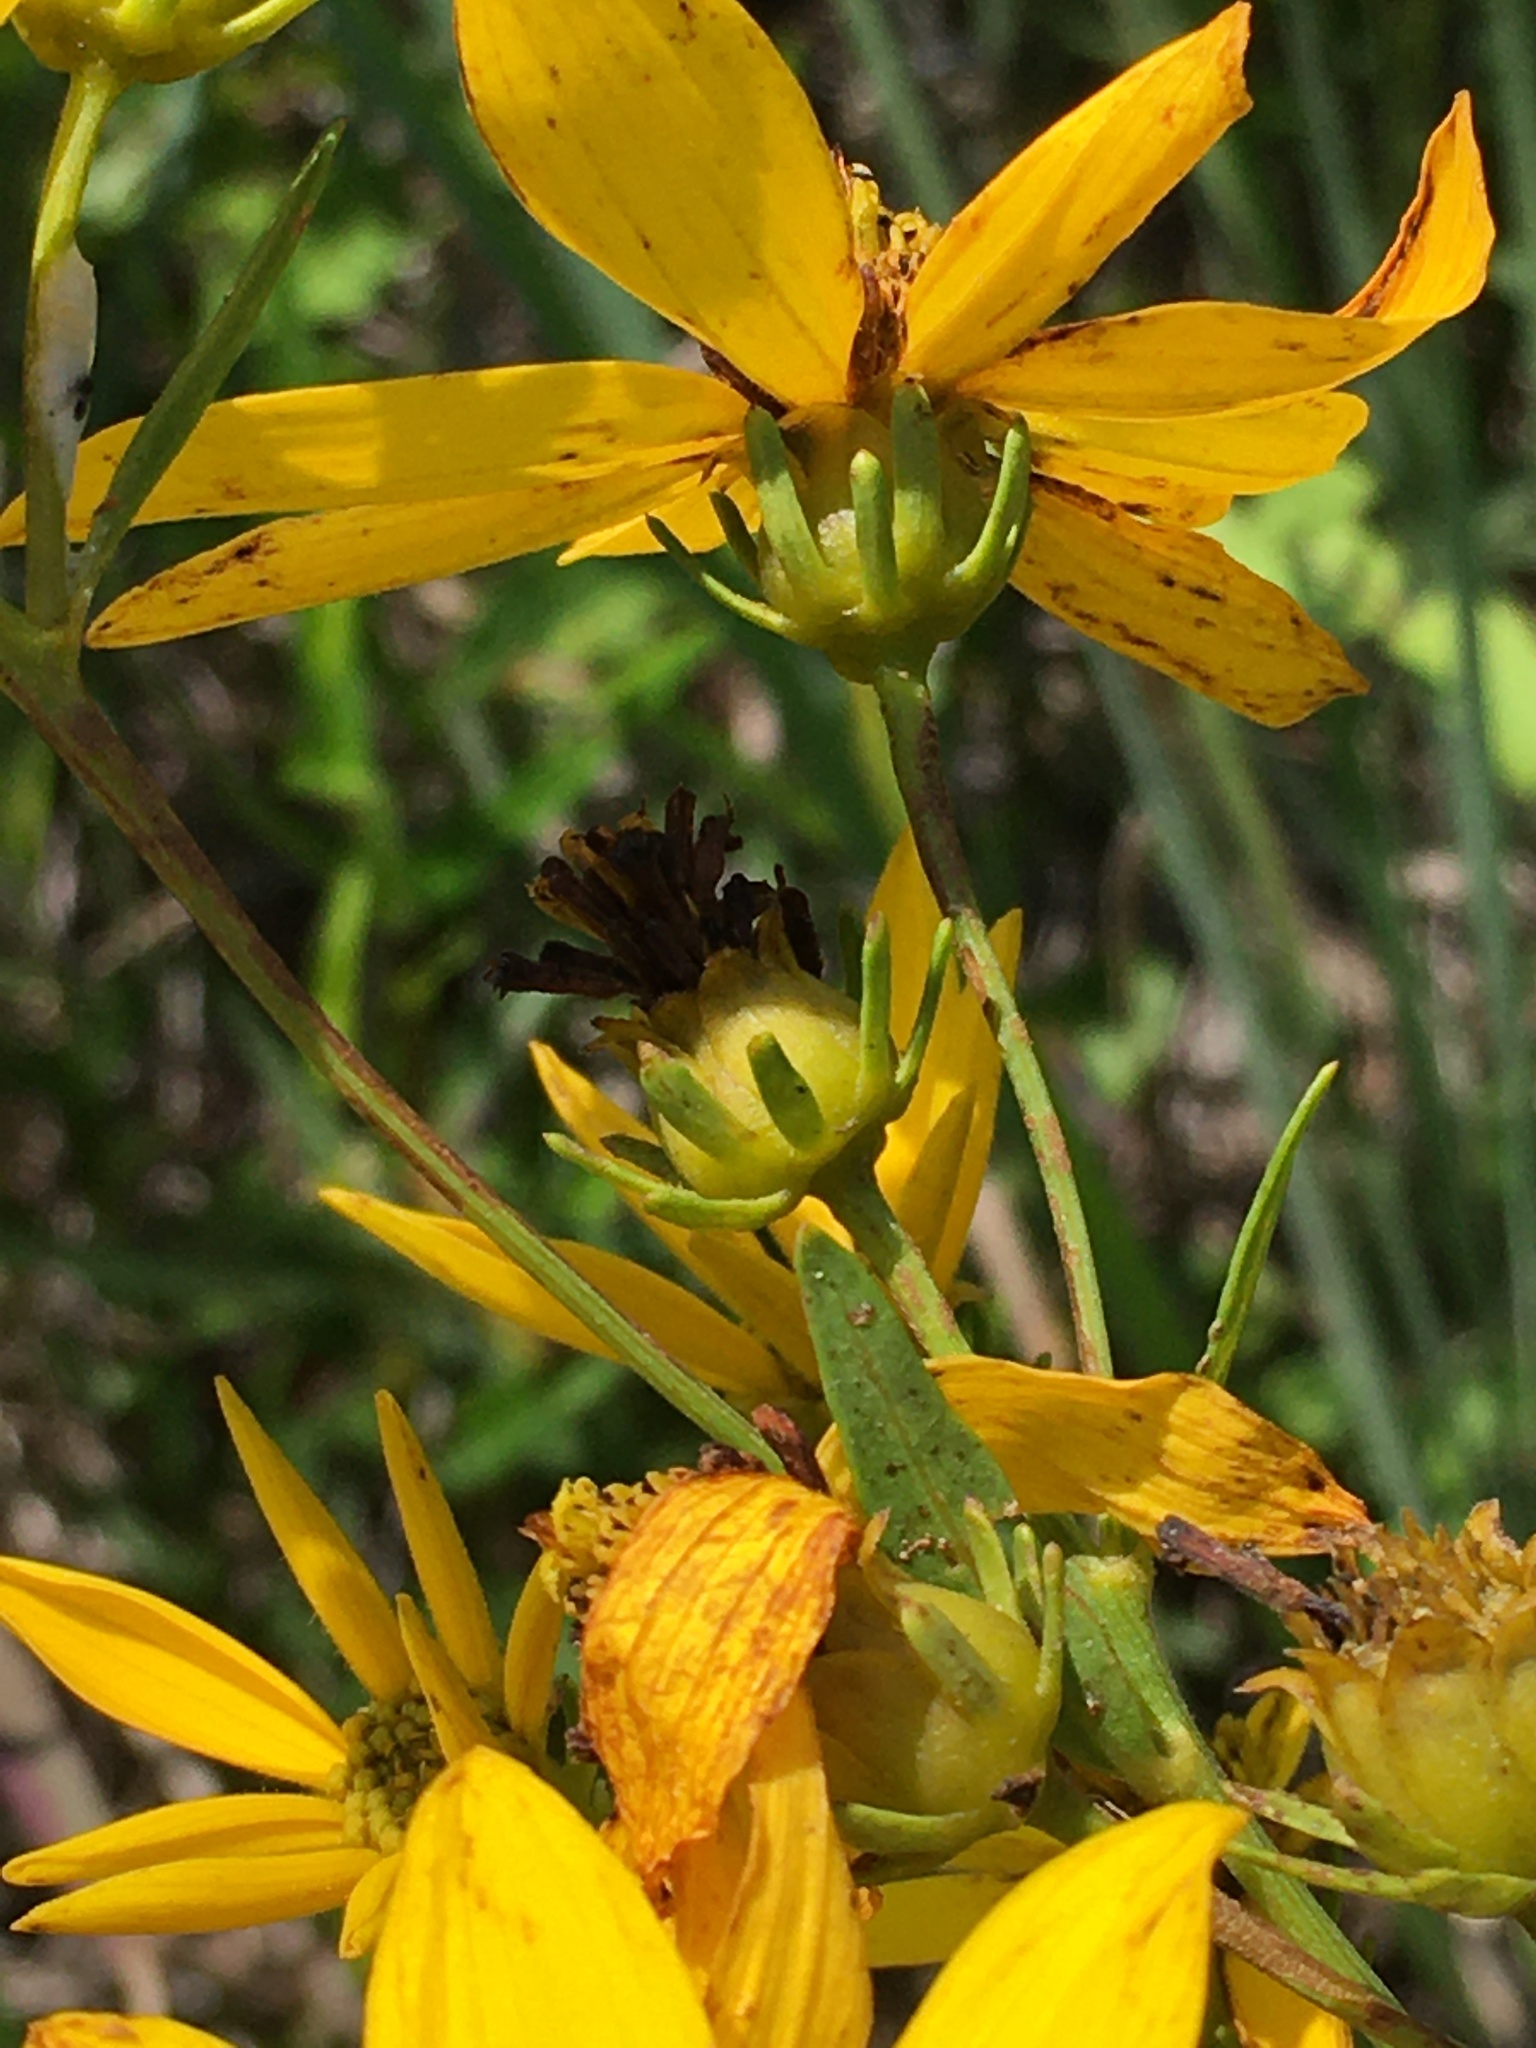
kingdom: Plantae
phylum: Tracheophyta
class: Magnoliopsida
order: Asterales
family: Asteraceae
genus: Coreopsis
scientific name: Coreopsis major
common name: Forest tickseed
